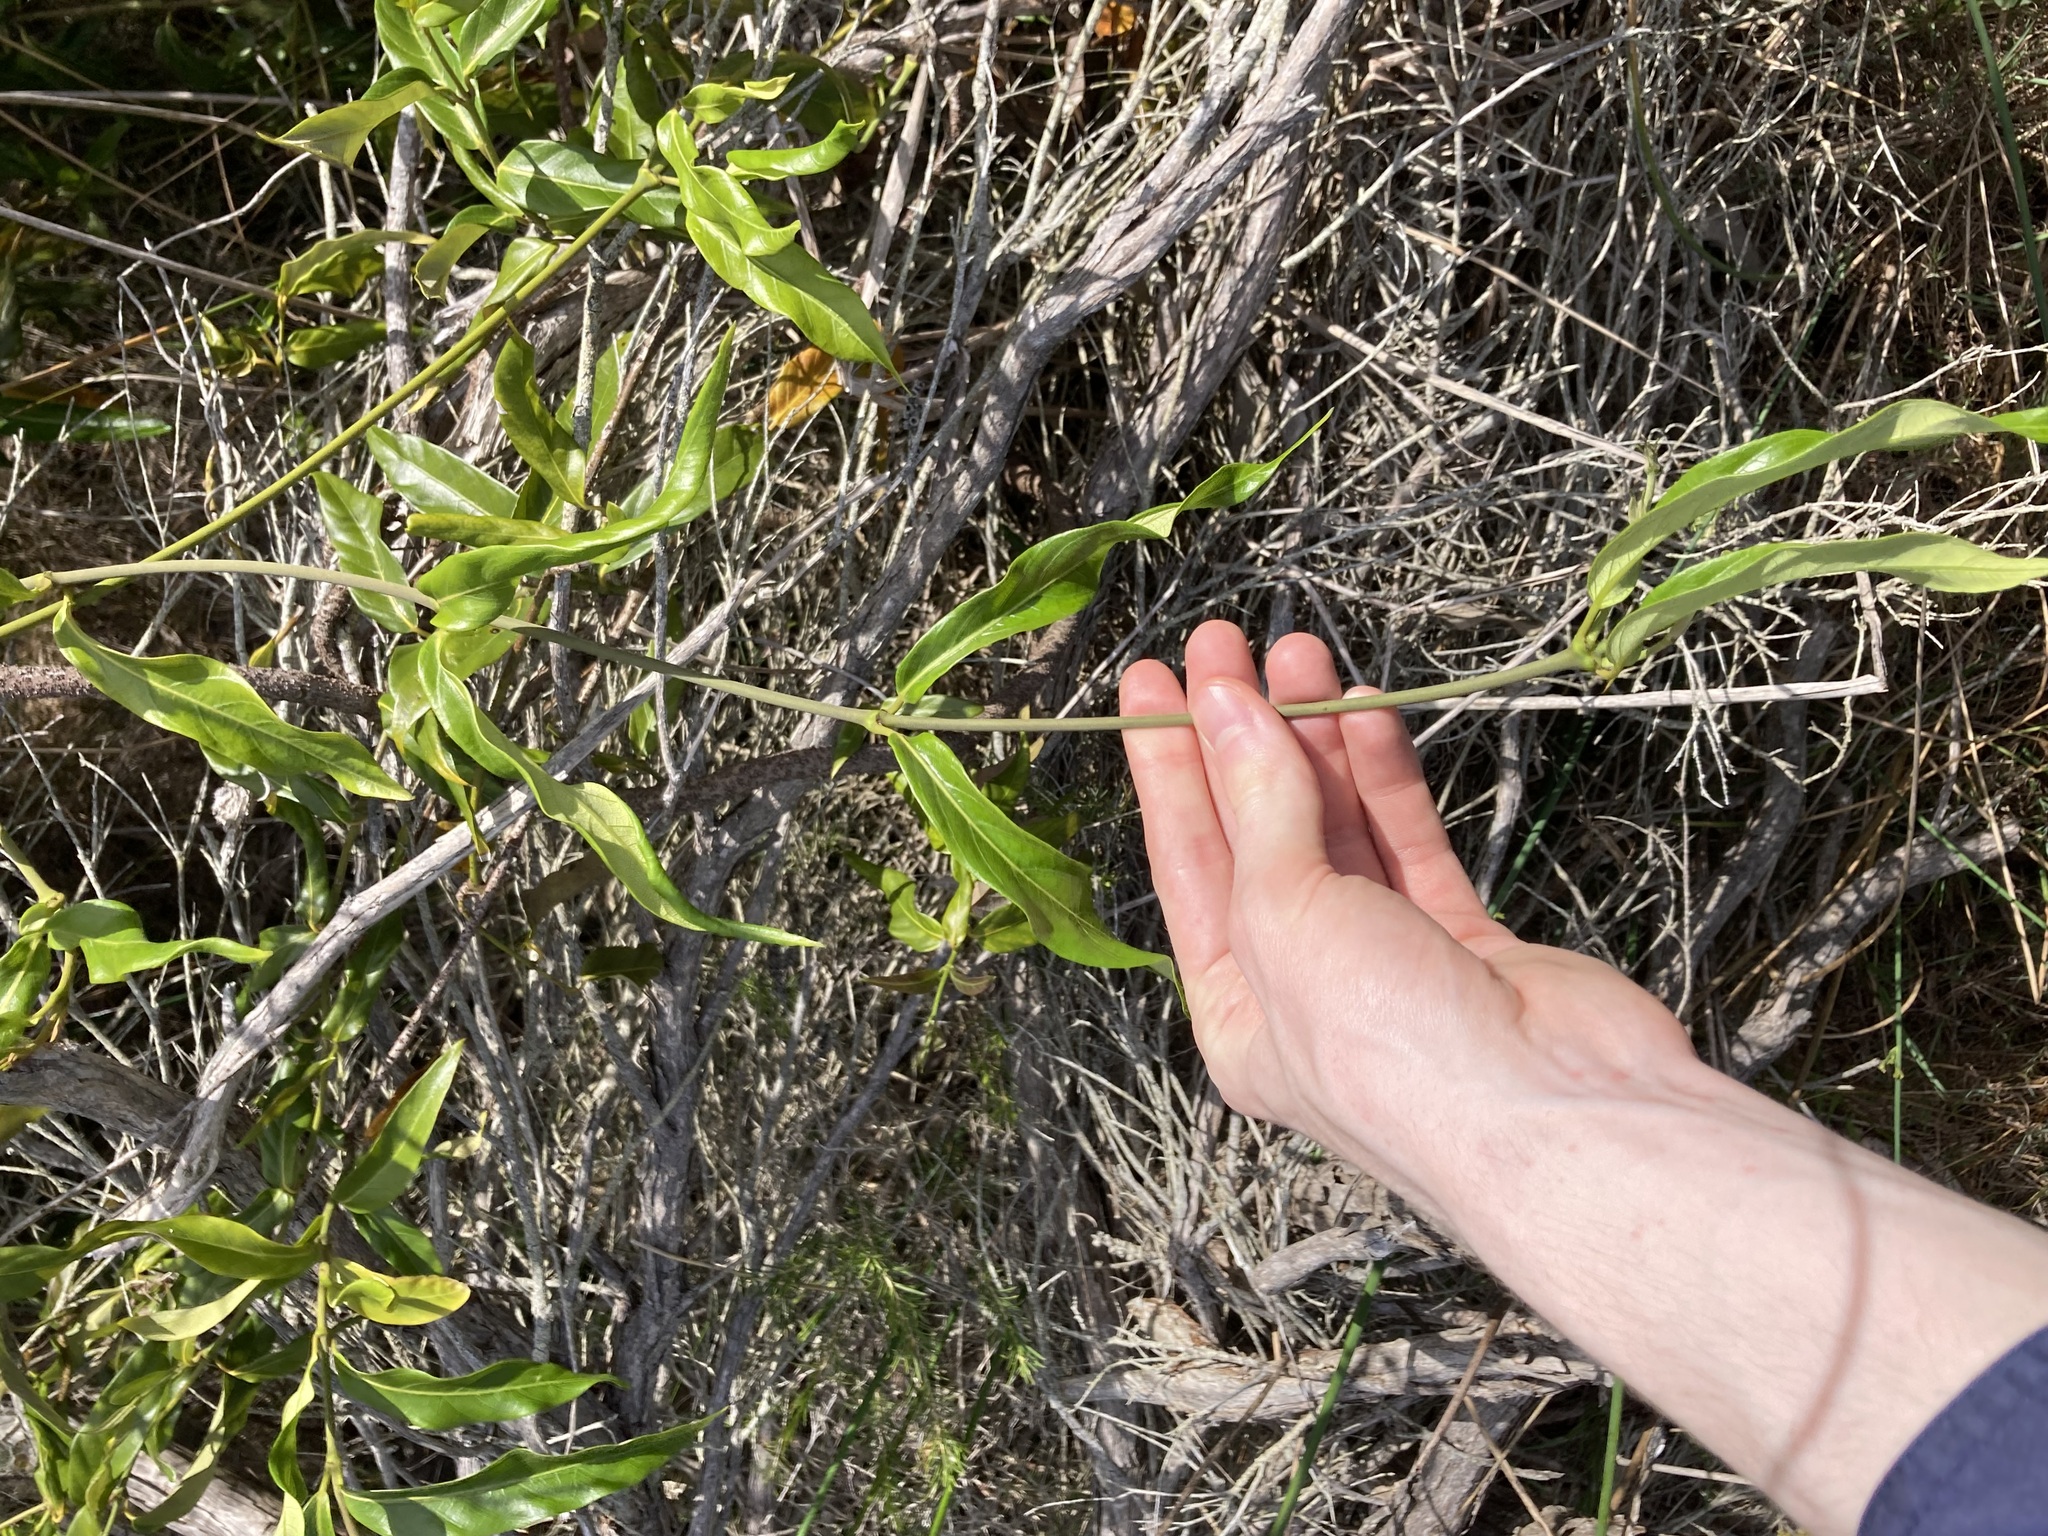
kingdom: Plantae
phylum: Tracheophyta
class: Magnoliopsida
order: Gentianales
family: Apocynaceae
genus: Parsonsia
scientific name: Parsonsia straminea
